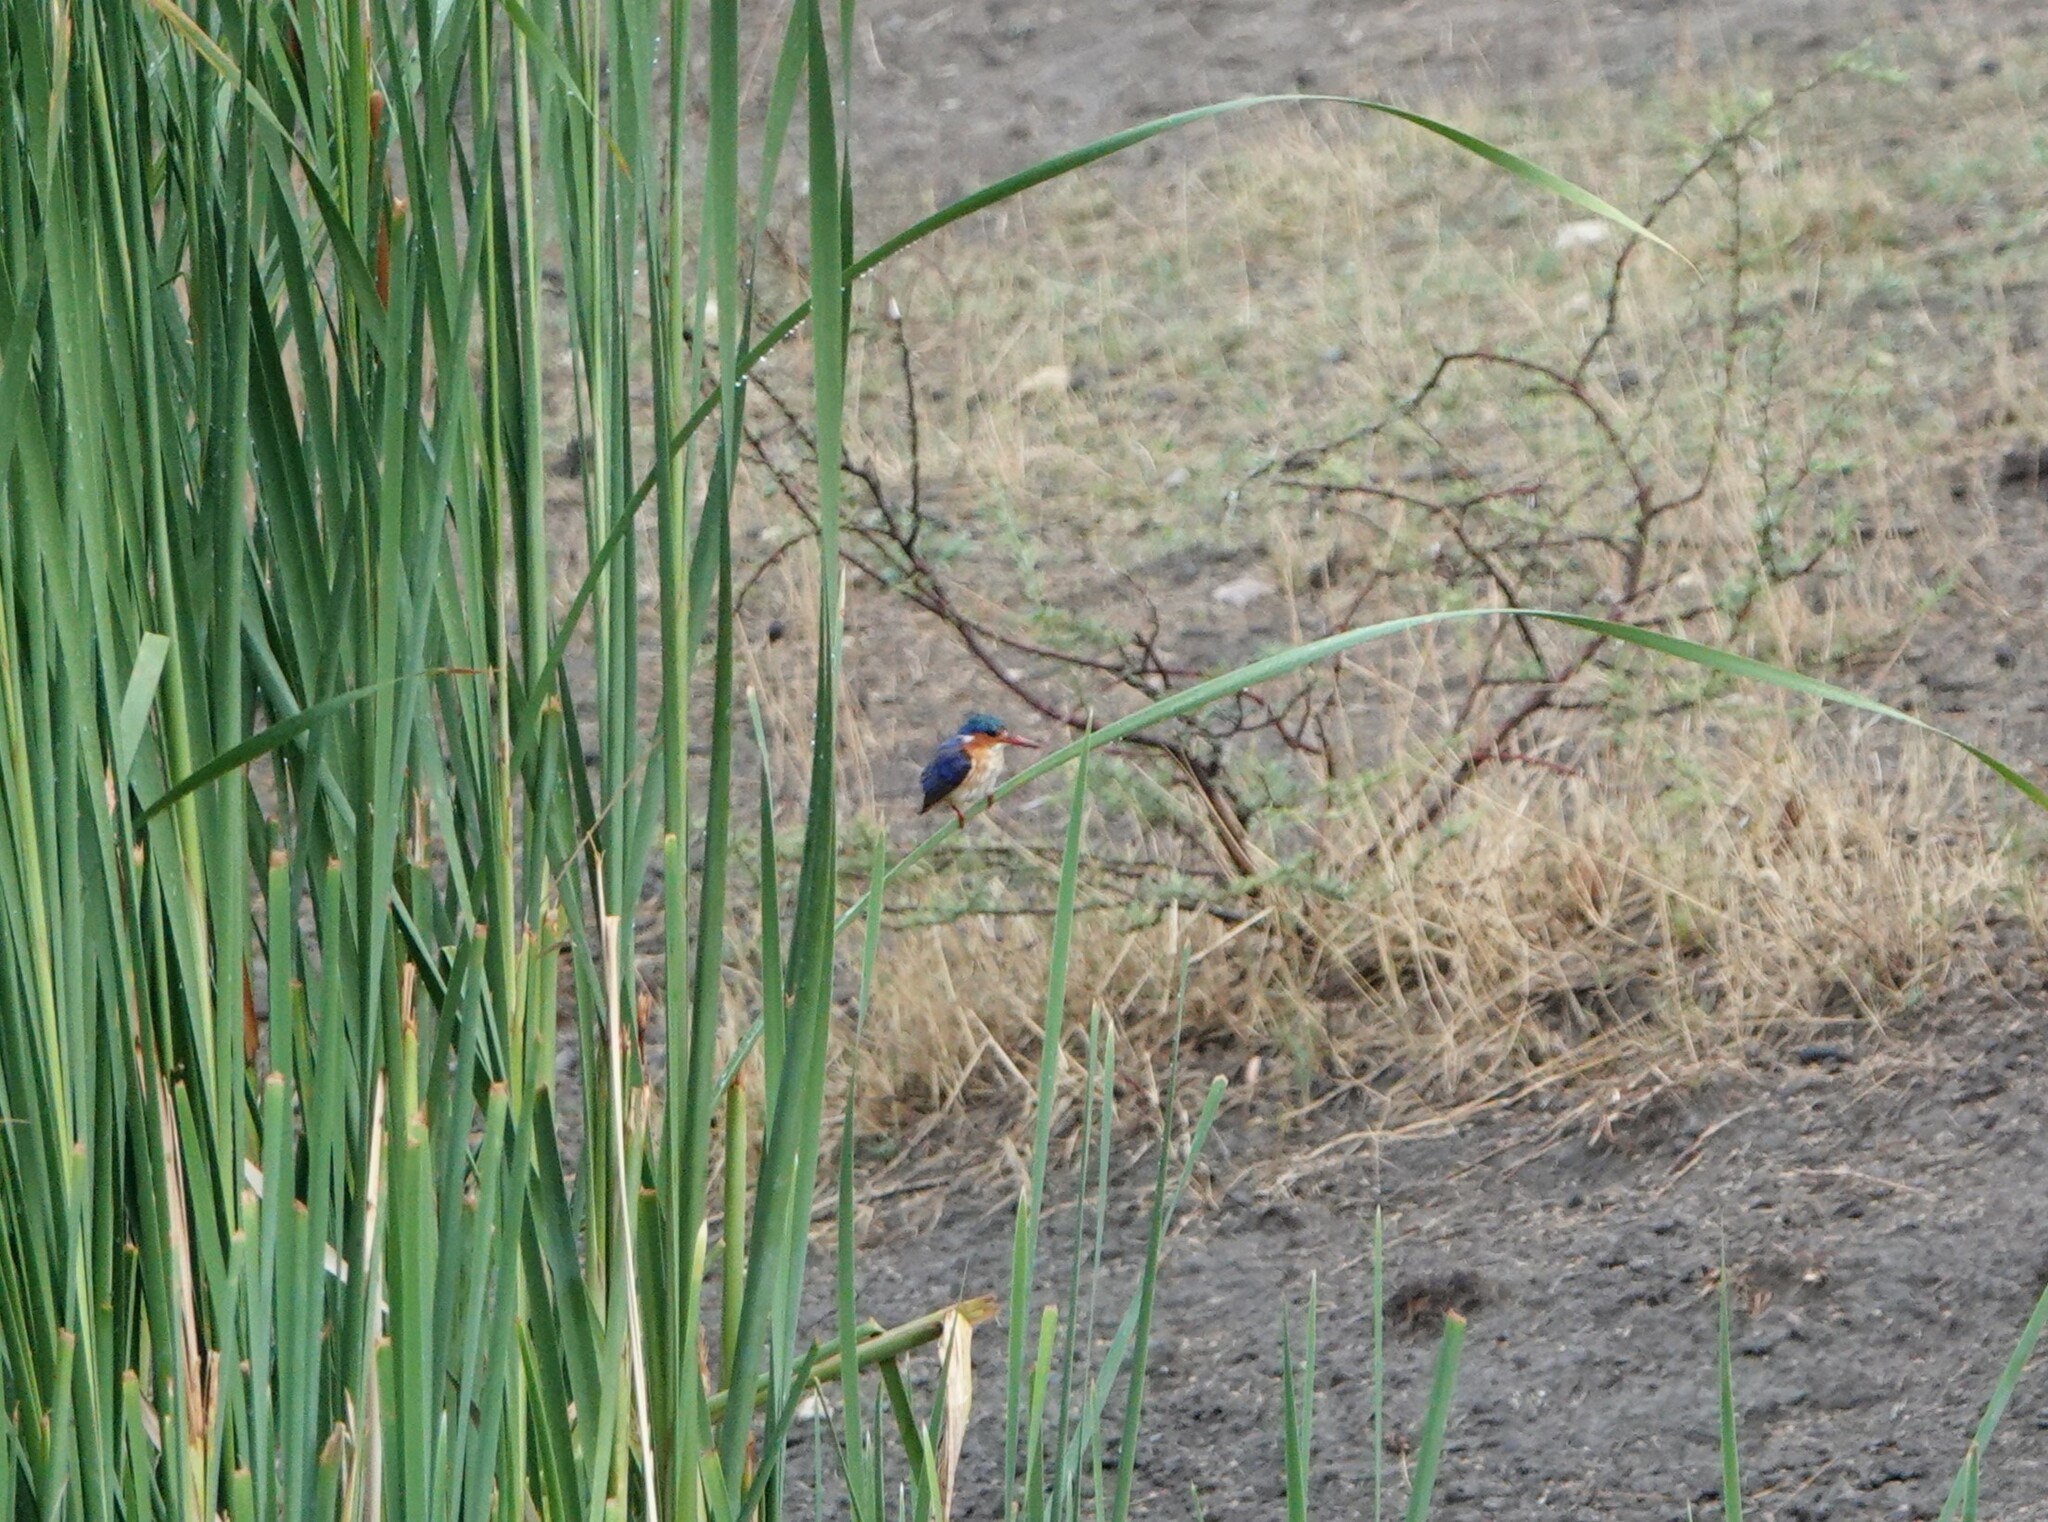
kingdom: Animalia
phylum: Chordata
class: Aves
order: Coraciiformes
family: Alcedinidae
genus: Corythornis
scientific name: Corythornis cristatus
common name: Malachite kingfisher
